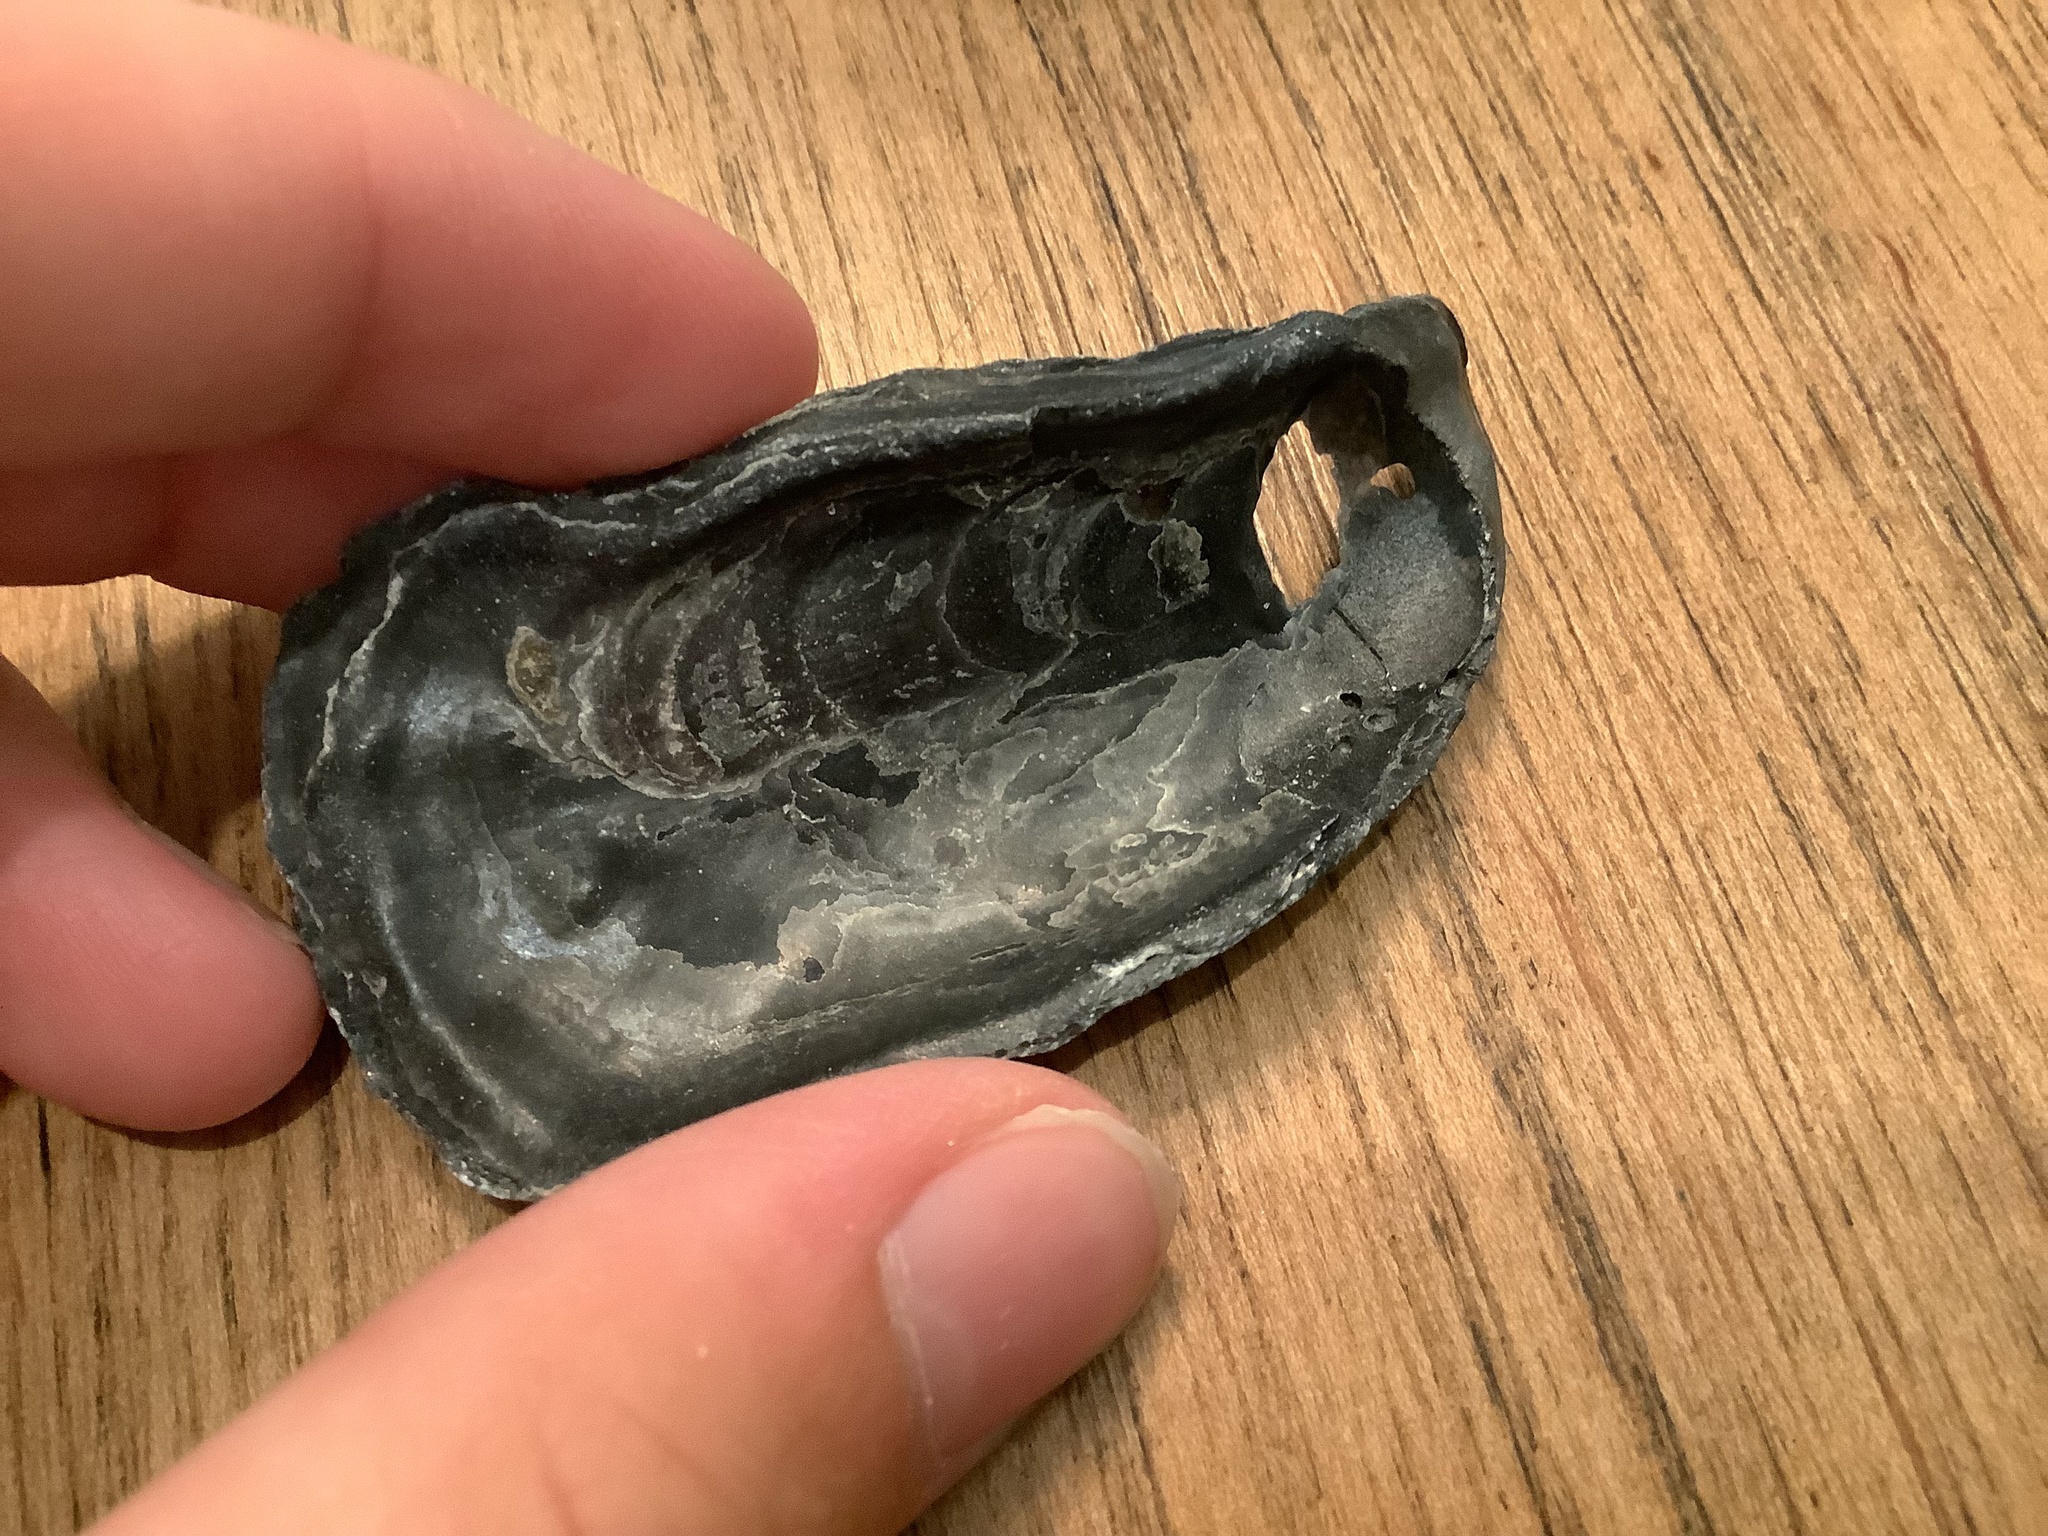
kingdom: Animalia
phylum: Mollusca
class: Bivalvia
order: Ostreida
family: Ostreidae
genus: Crassostrea
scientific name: Crassostrea virginica
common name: American oyster
